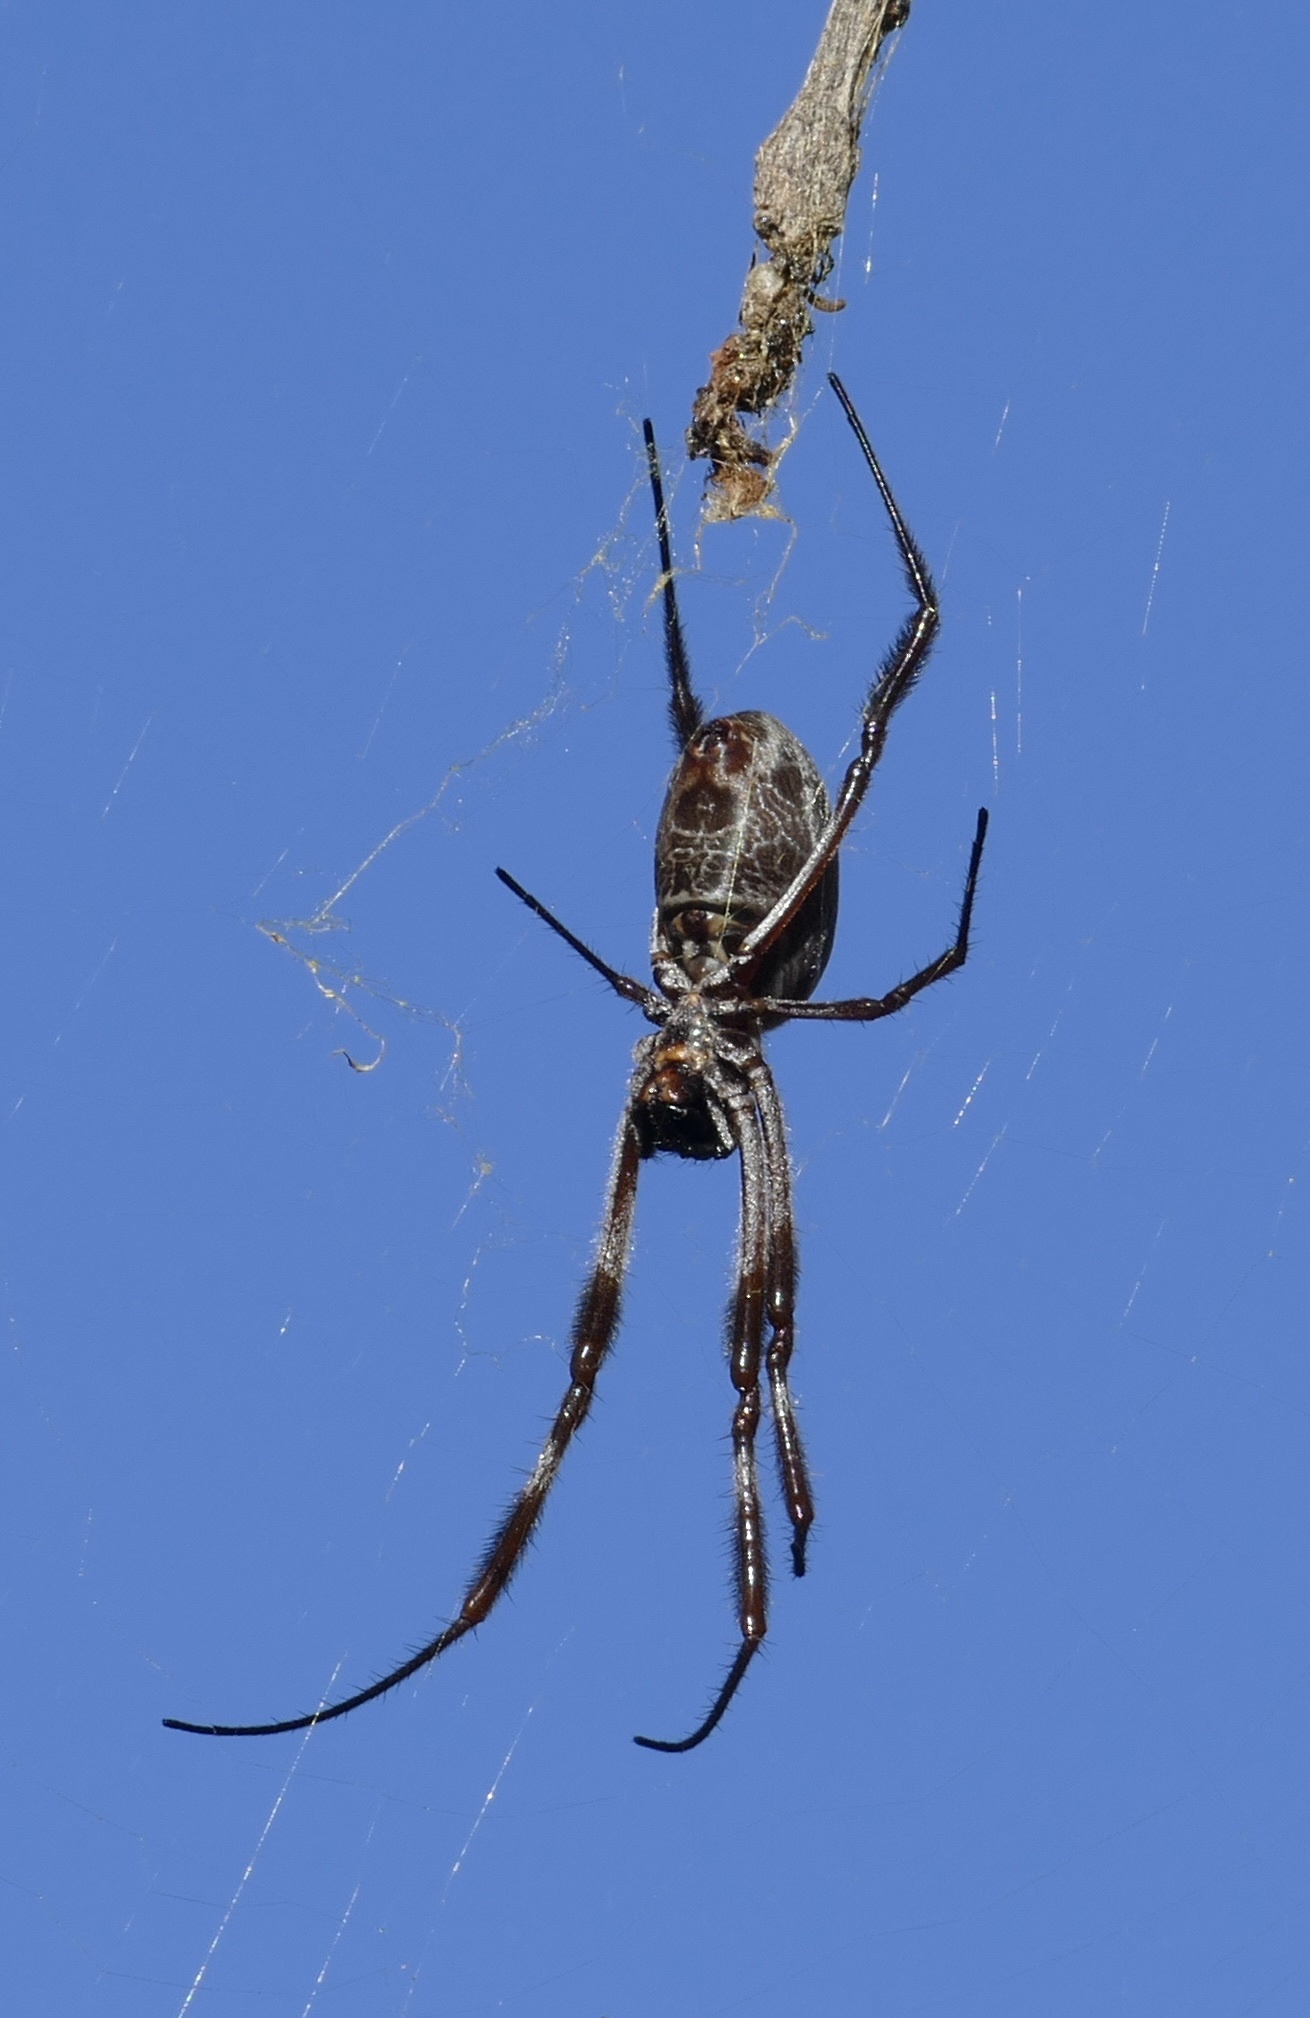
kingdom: Animalia
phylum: Arthropoda
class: Arachnida
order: Araneae
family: Araneidae
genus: Trichonephila
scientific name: Trichonephila edulis
